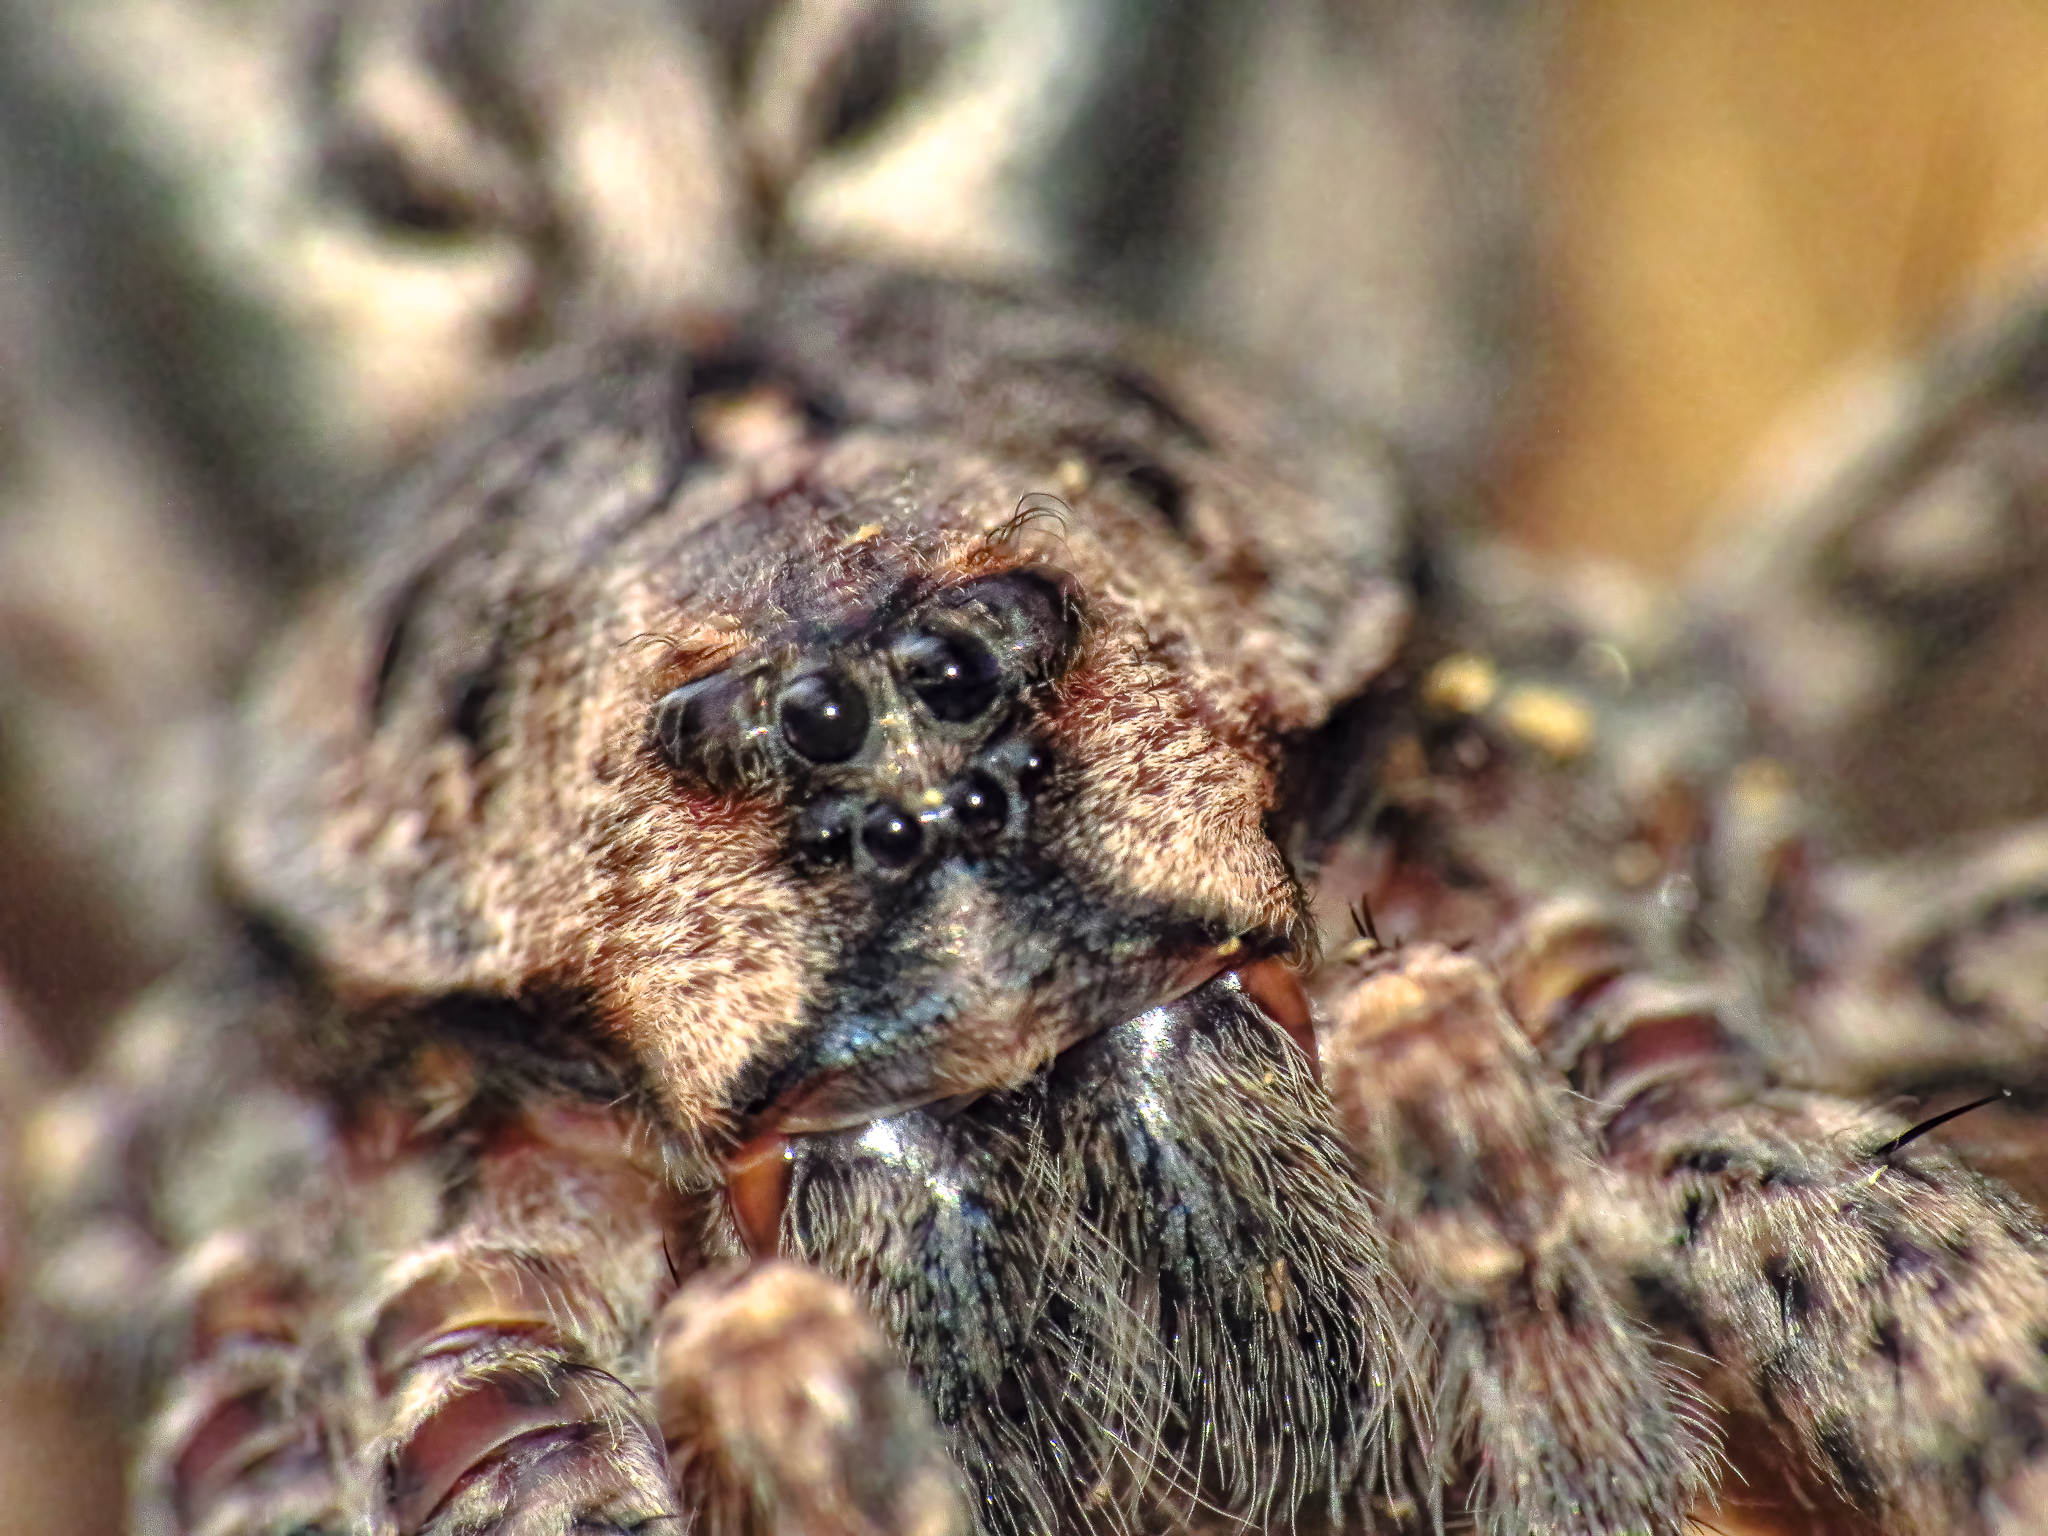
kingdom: Animalia
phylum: Arthropoda
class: Arachnida
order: Araneae
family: Pisauridae
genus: Dolomedes
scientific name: Dolomedes tenebrosus
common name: Dark fishing spider
